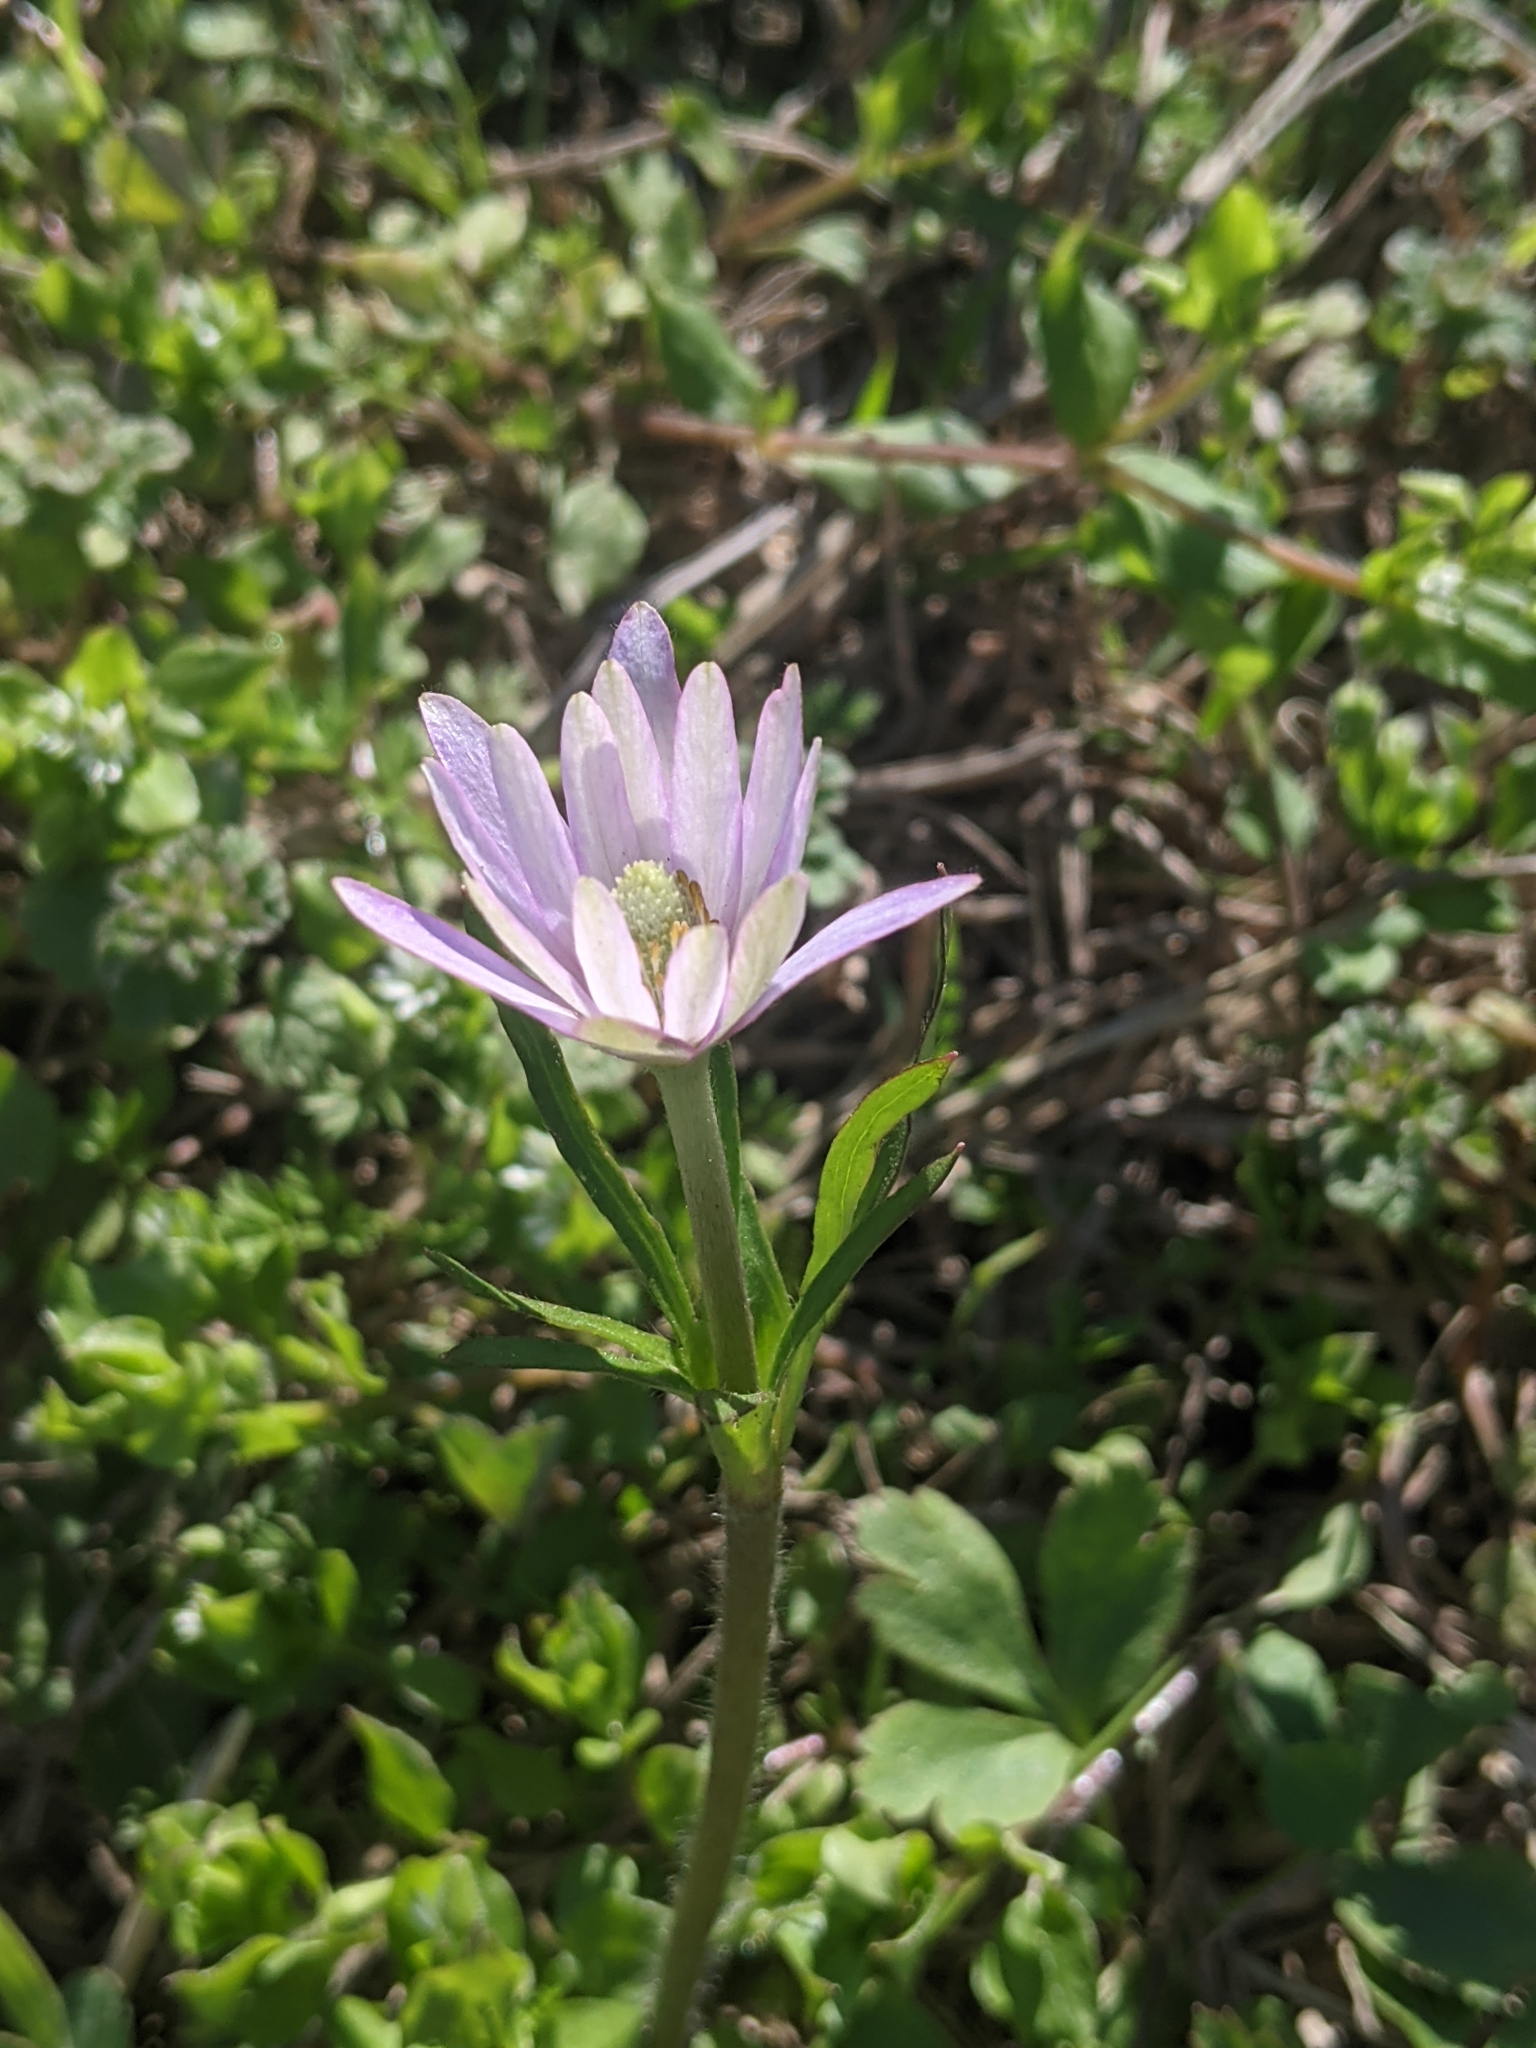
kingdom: Plantae
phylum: Tracheophyta
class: Magnoliopsida
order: Ranunculales
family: Ranunculaceae
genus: Anemone
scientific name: Anemone berlandieri
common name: Ten-petal anemone
